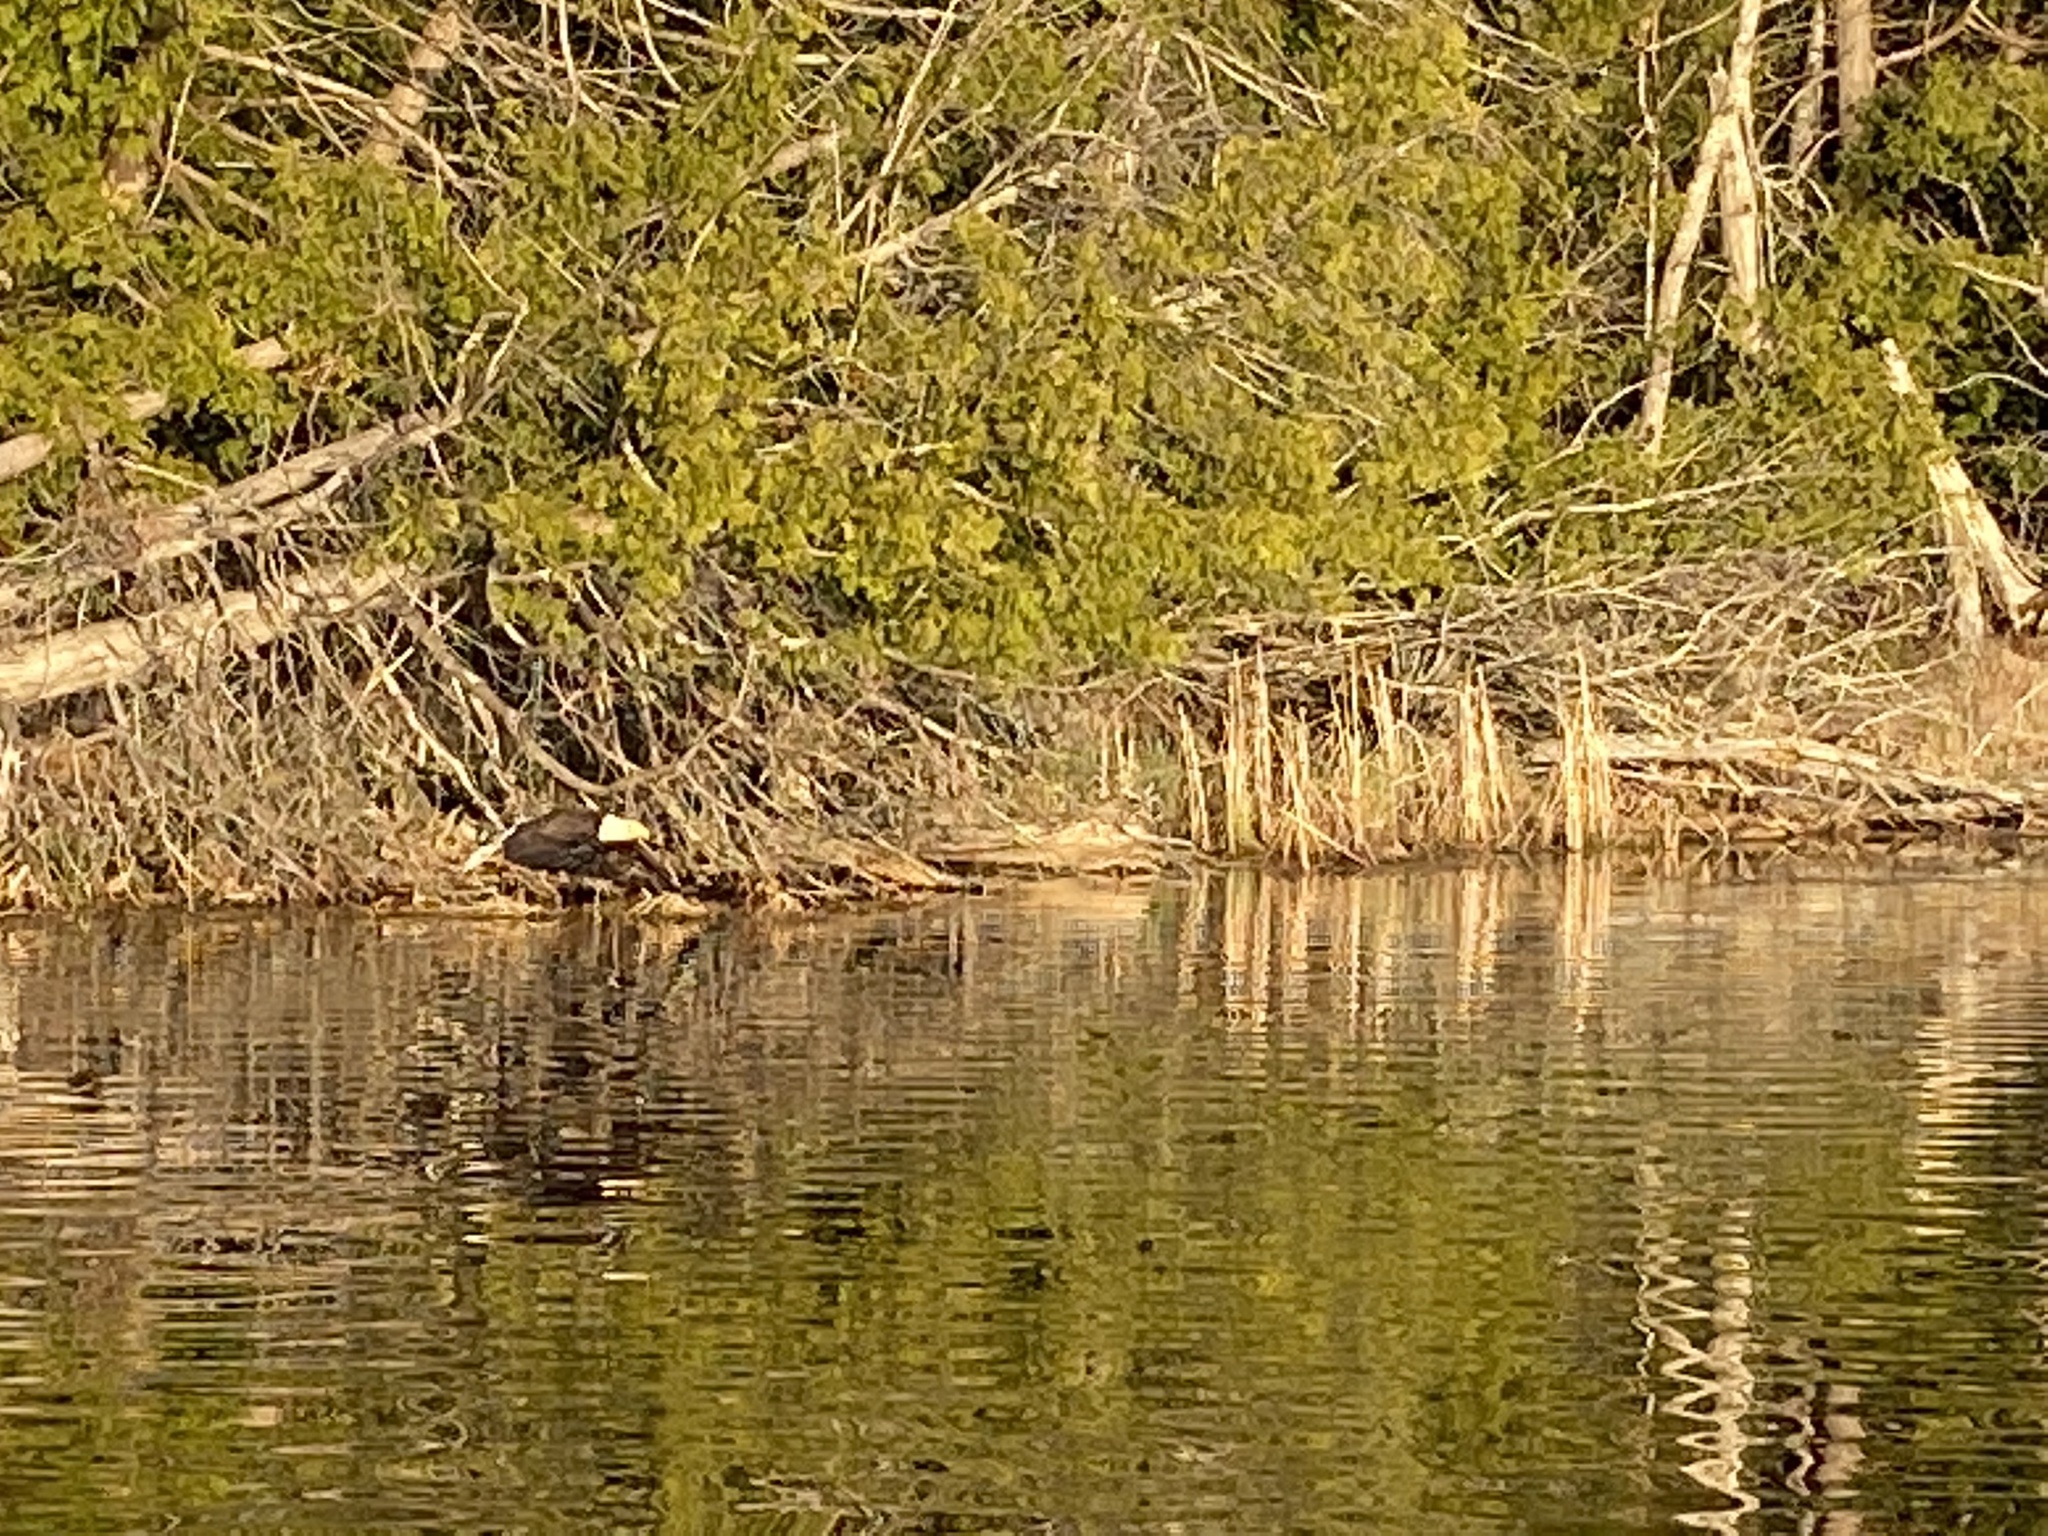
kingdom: Animalia
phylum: Chordata
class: Aves
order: Accipitriformes
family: Accipitridae
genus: Haliaeetus
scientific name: Haliaeetus leucocephalus
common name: Bald eagle
